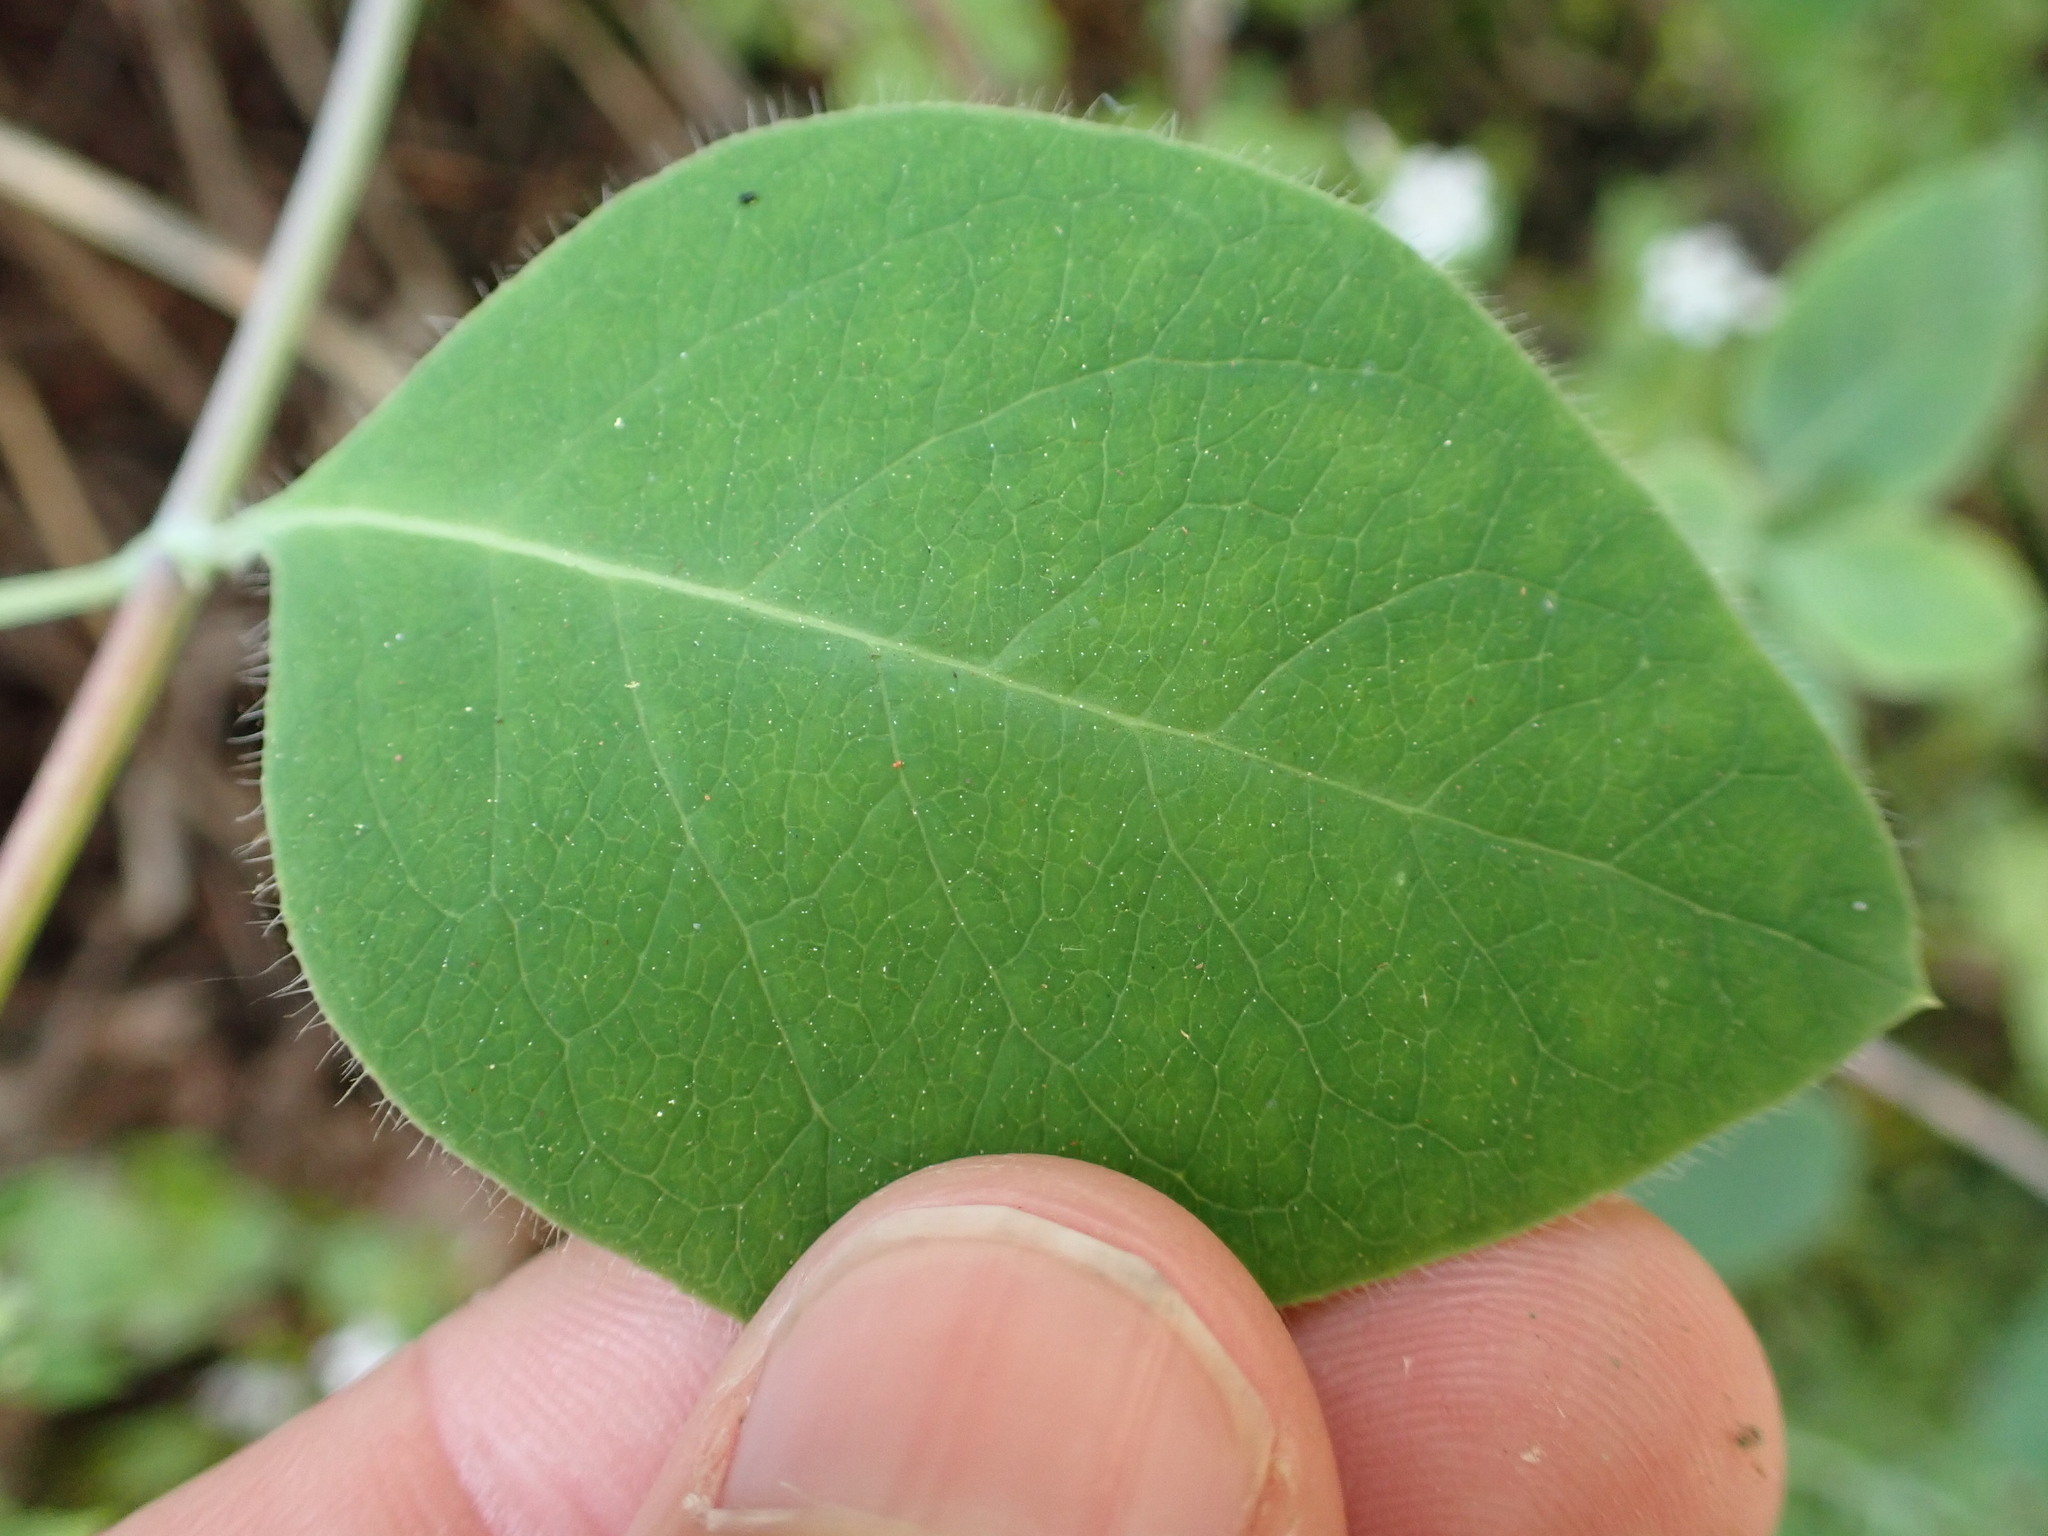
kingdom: Plantae
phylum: Tracheophyta
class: Magnoliopsida
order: Dipsacales
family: Caprifoliaceae
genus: Lonicera
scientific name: Lonicera ciliosa
